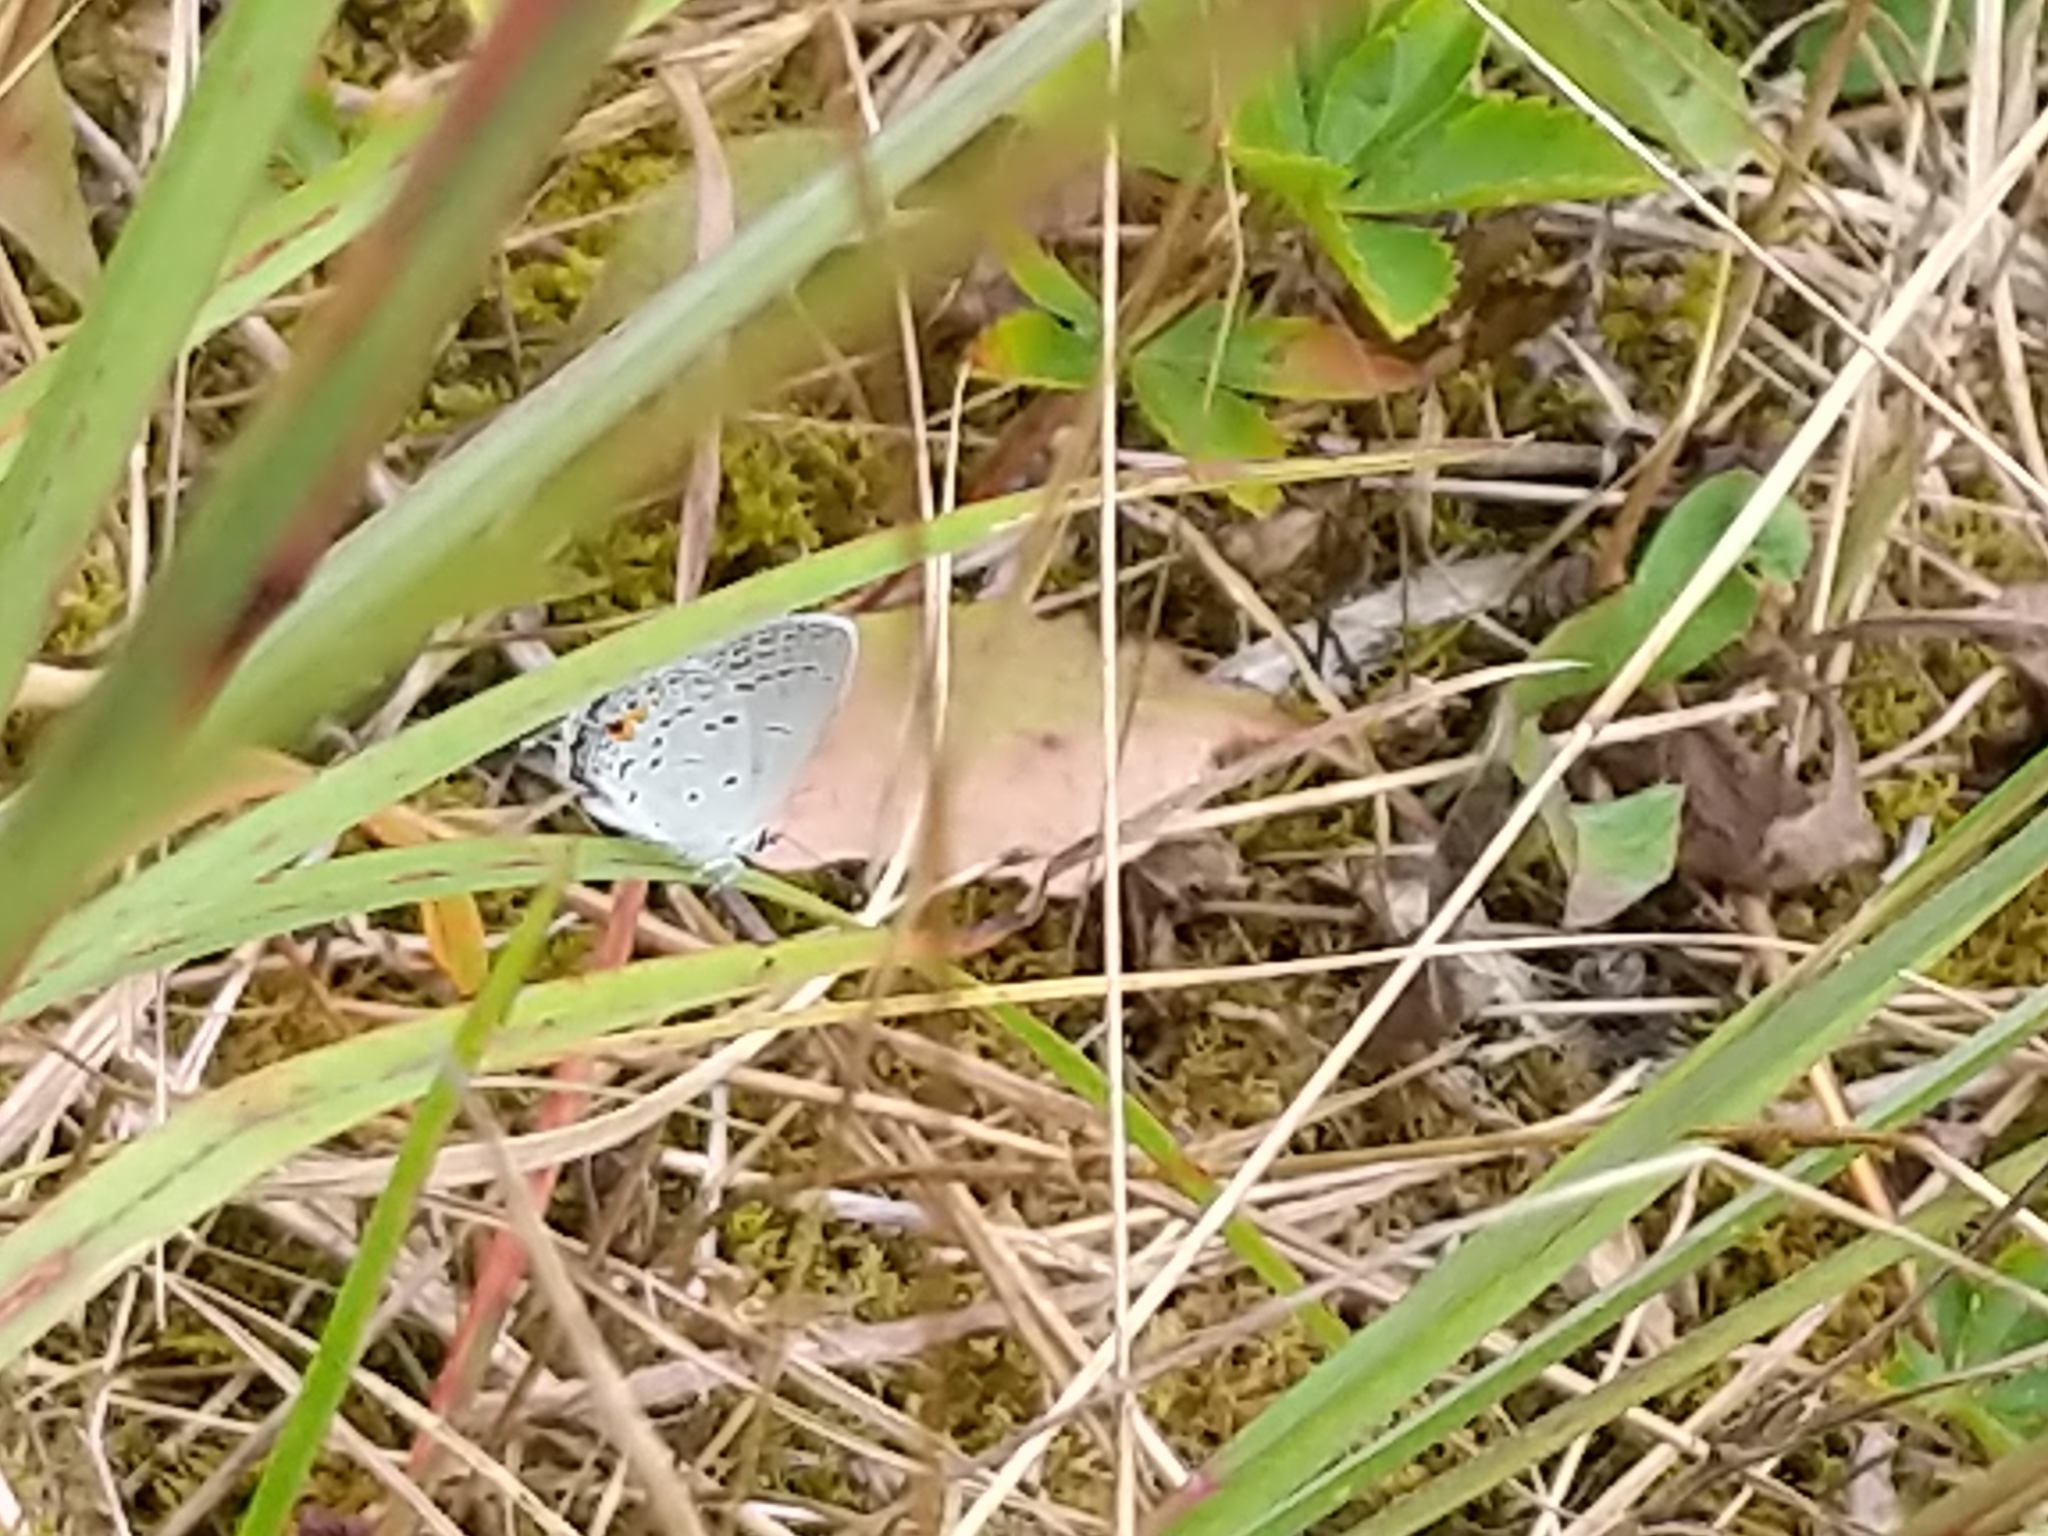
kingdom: Animalia
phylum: Arthropoda
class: Insecta
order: Lepidoptera
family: Lycaenidae
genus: Elkalyce
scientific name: Elkalyce comyntas
